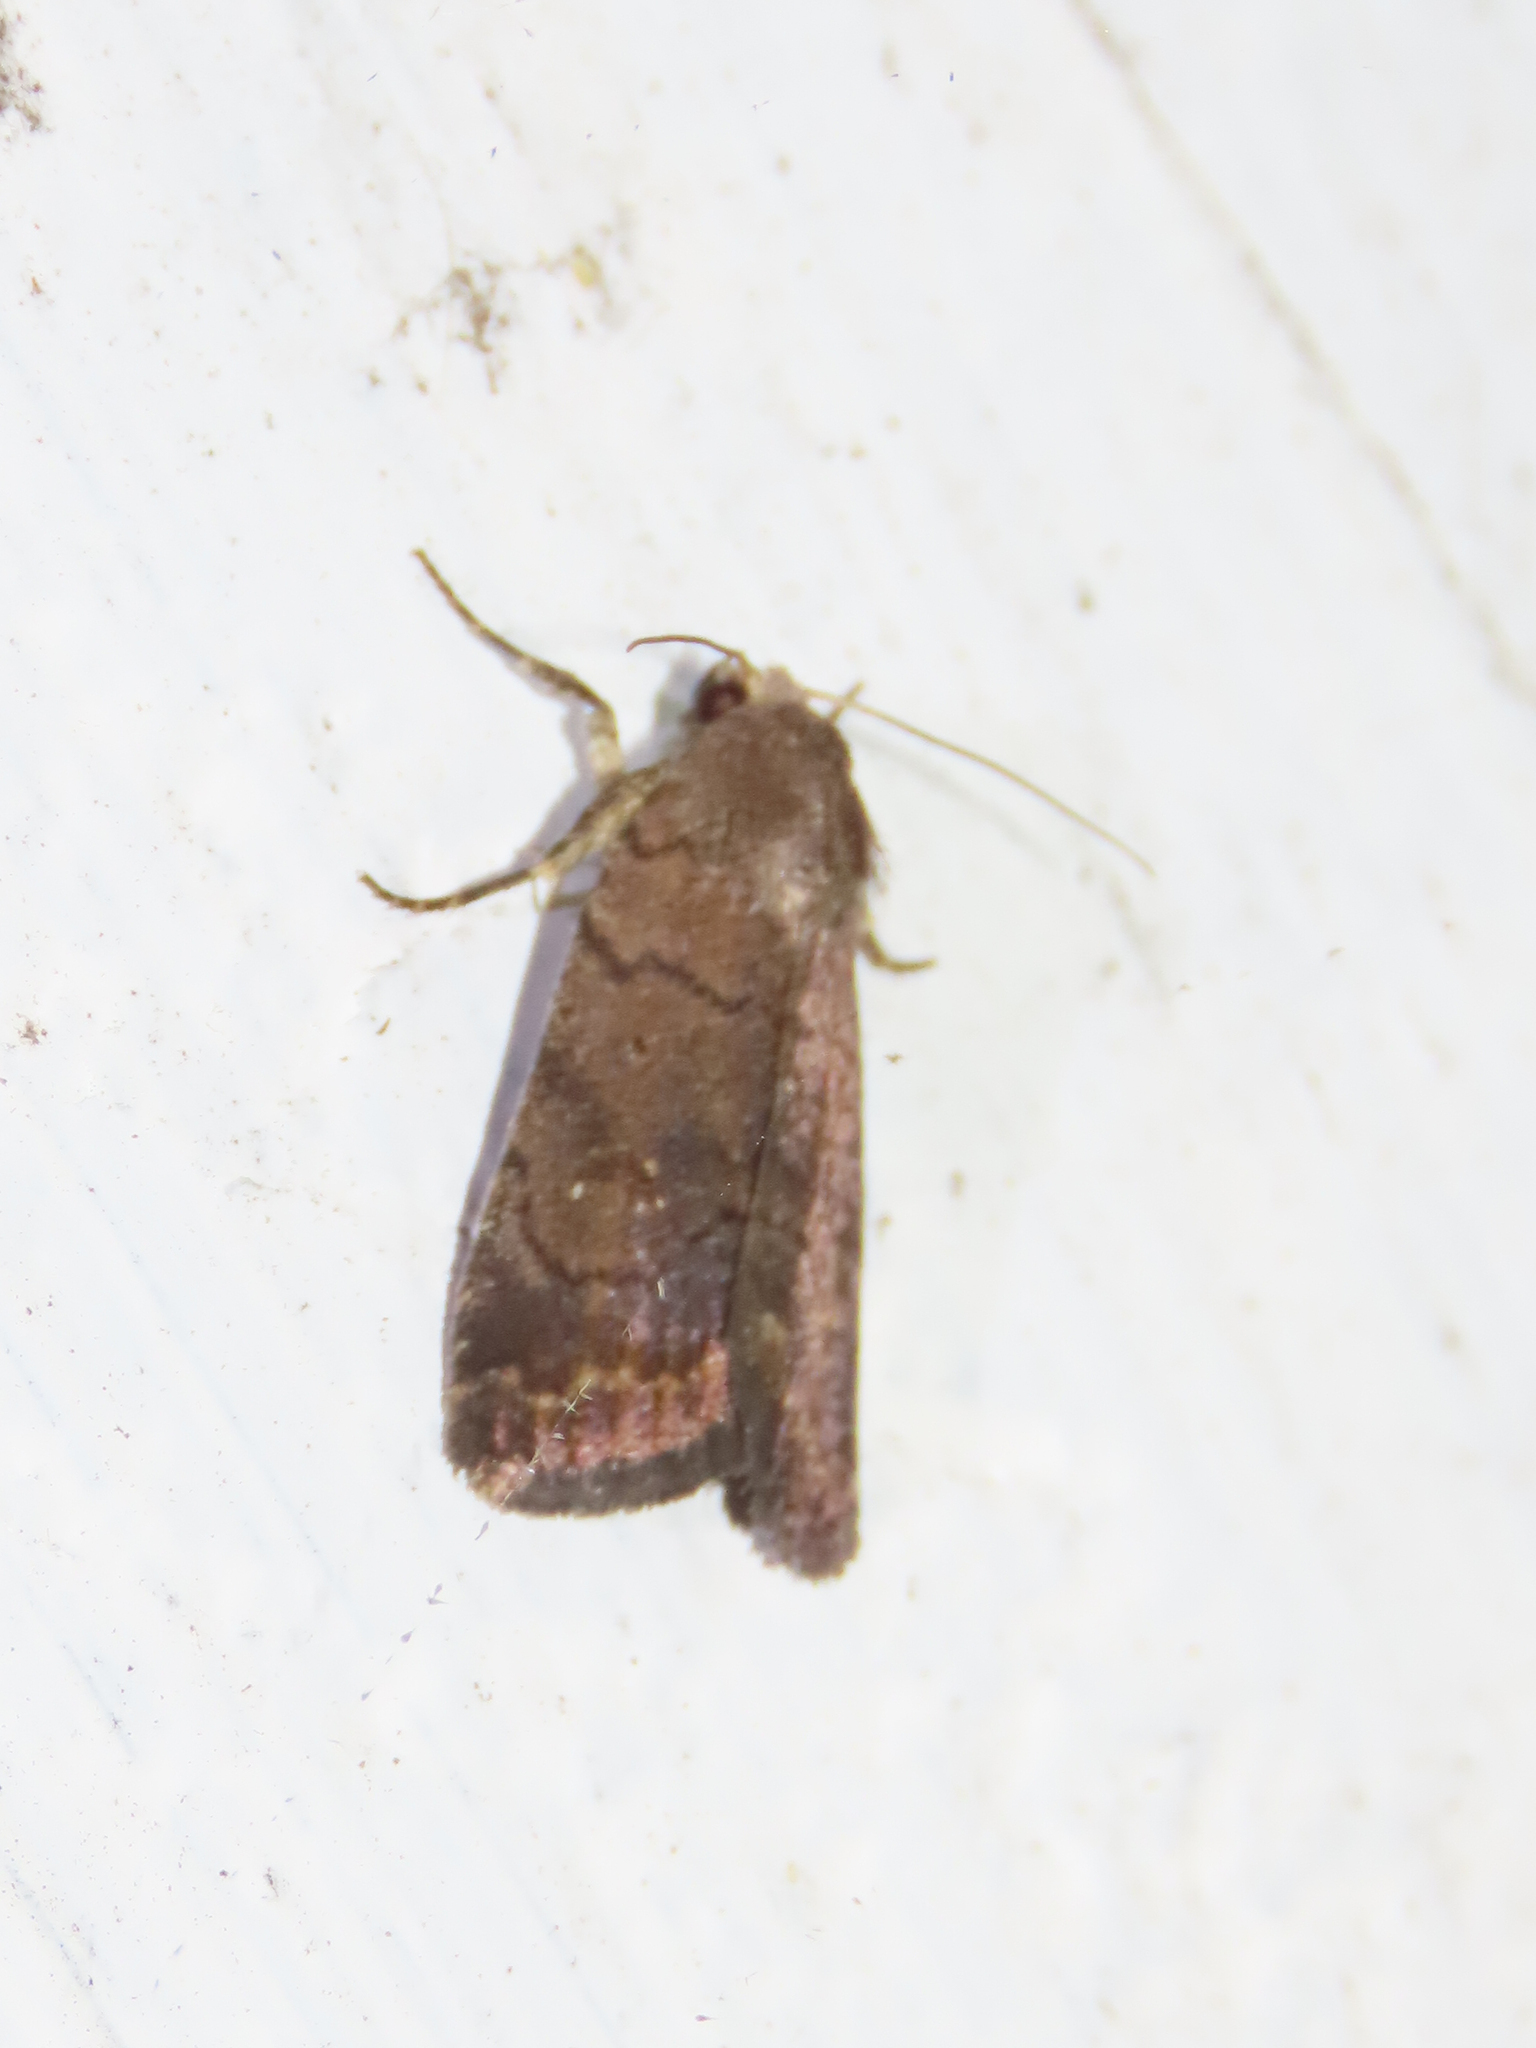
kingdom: Animalia
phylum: Arthropoda
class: Insecta
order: Lepidoptera
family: Noctuidae
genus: Athetis
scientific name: Athetis tarda
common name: Slowpoke moth
